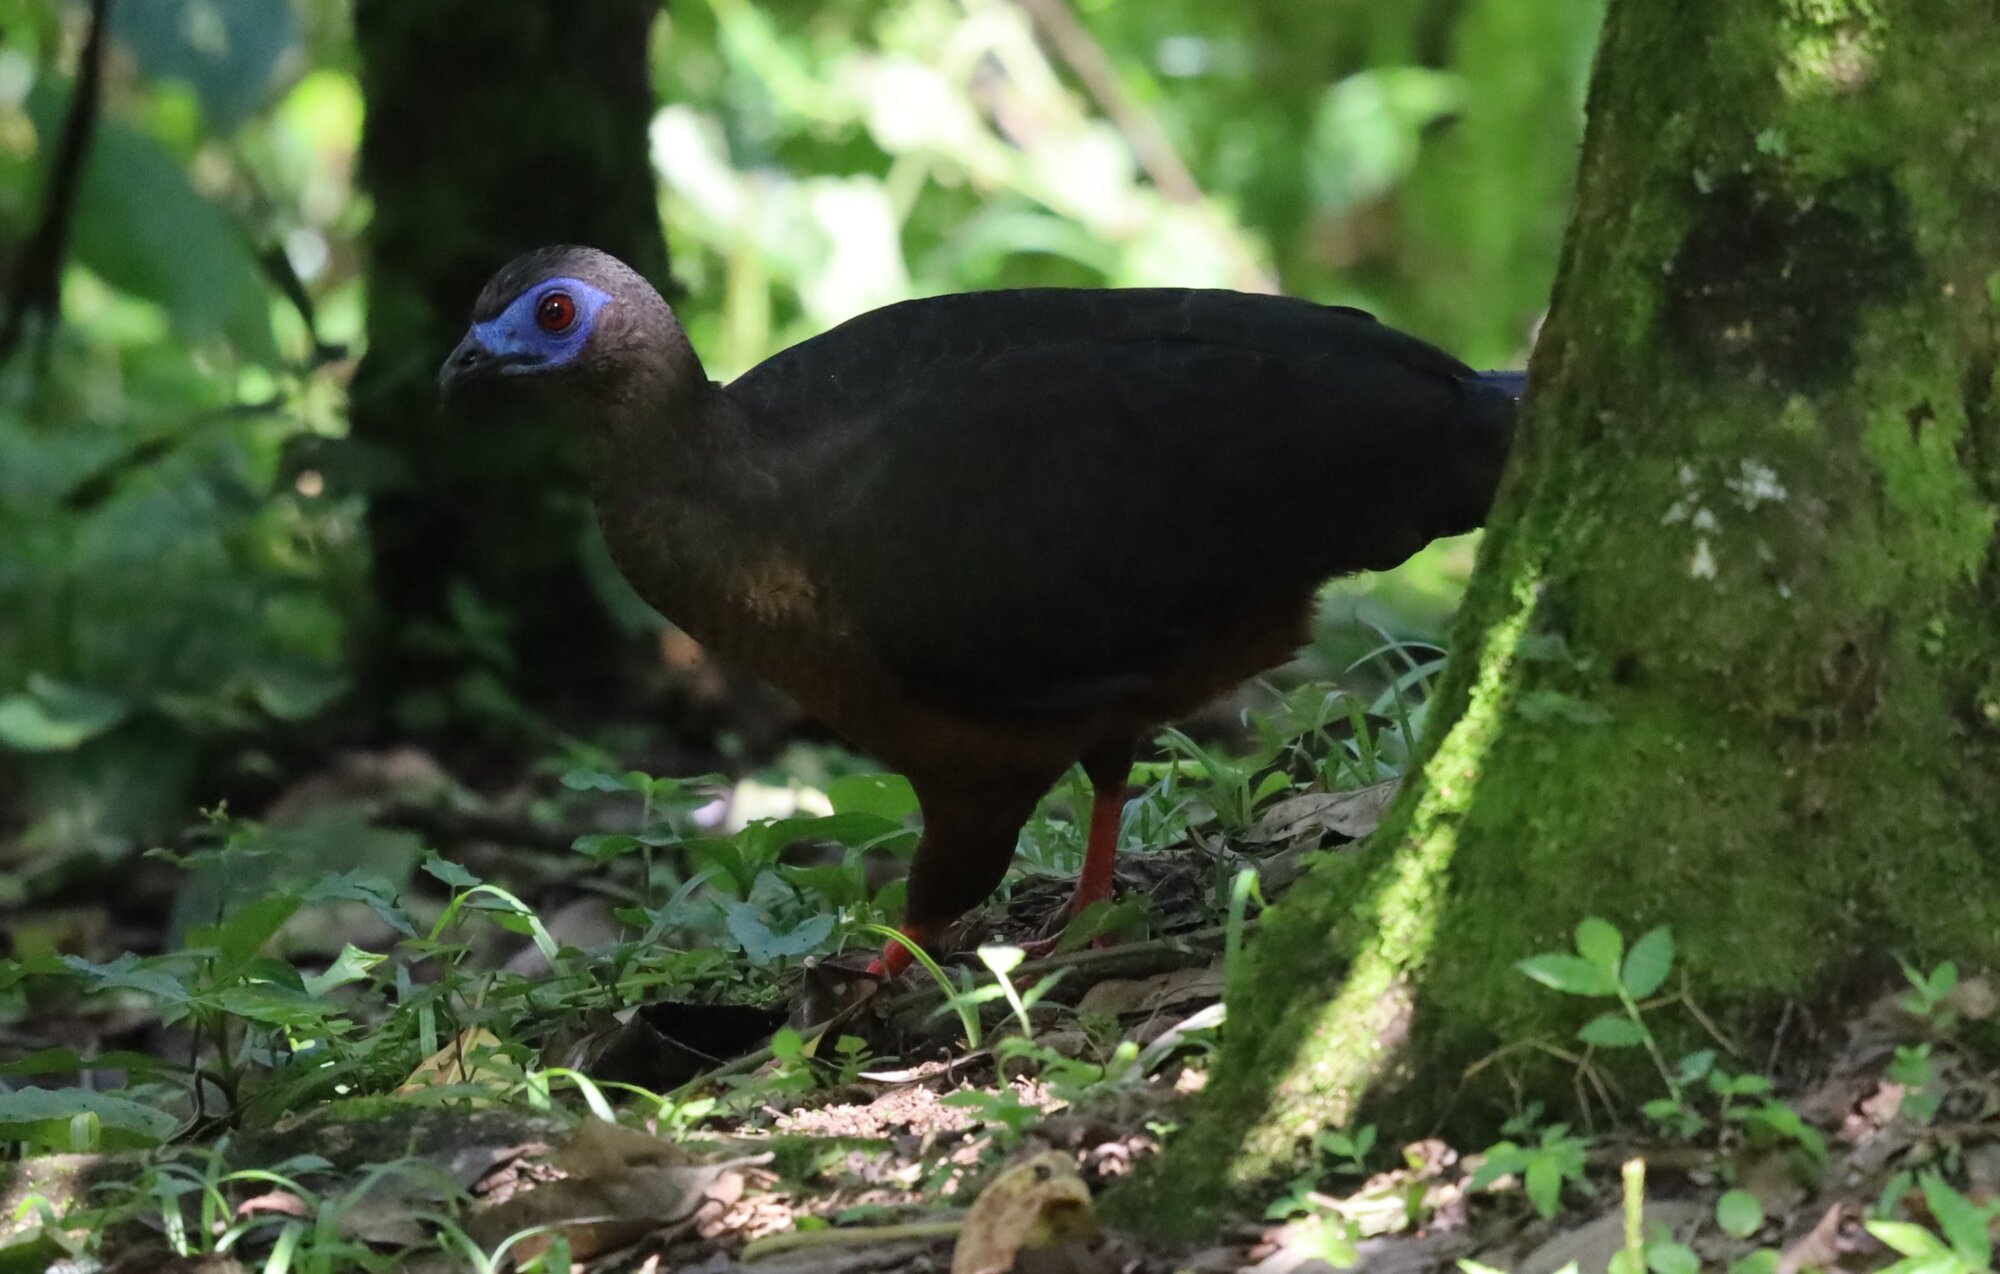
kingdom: Animalia
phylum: Chordata
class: Aves
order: Galliformes
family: Cracidae
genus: Chamaepetes
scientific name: Chamaepetes goudotii
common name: Sickle-winged guan
